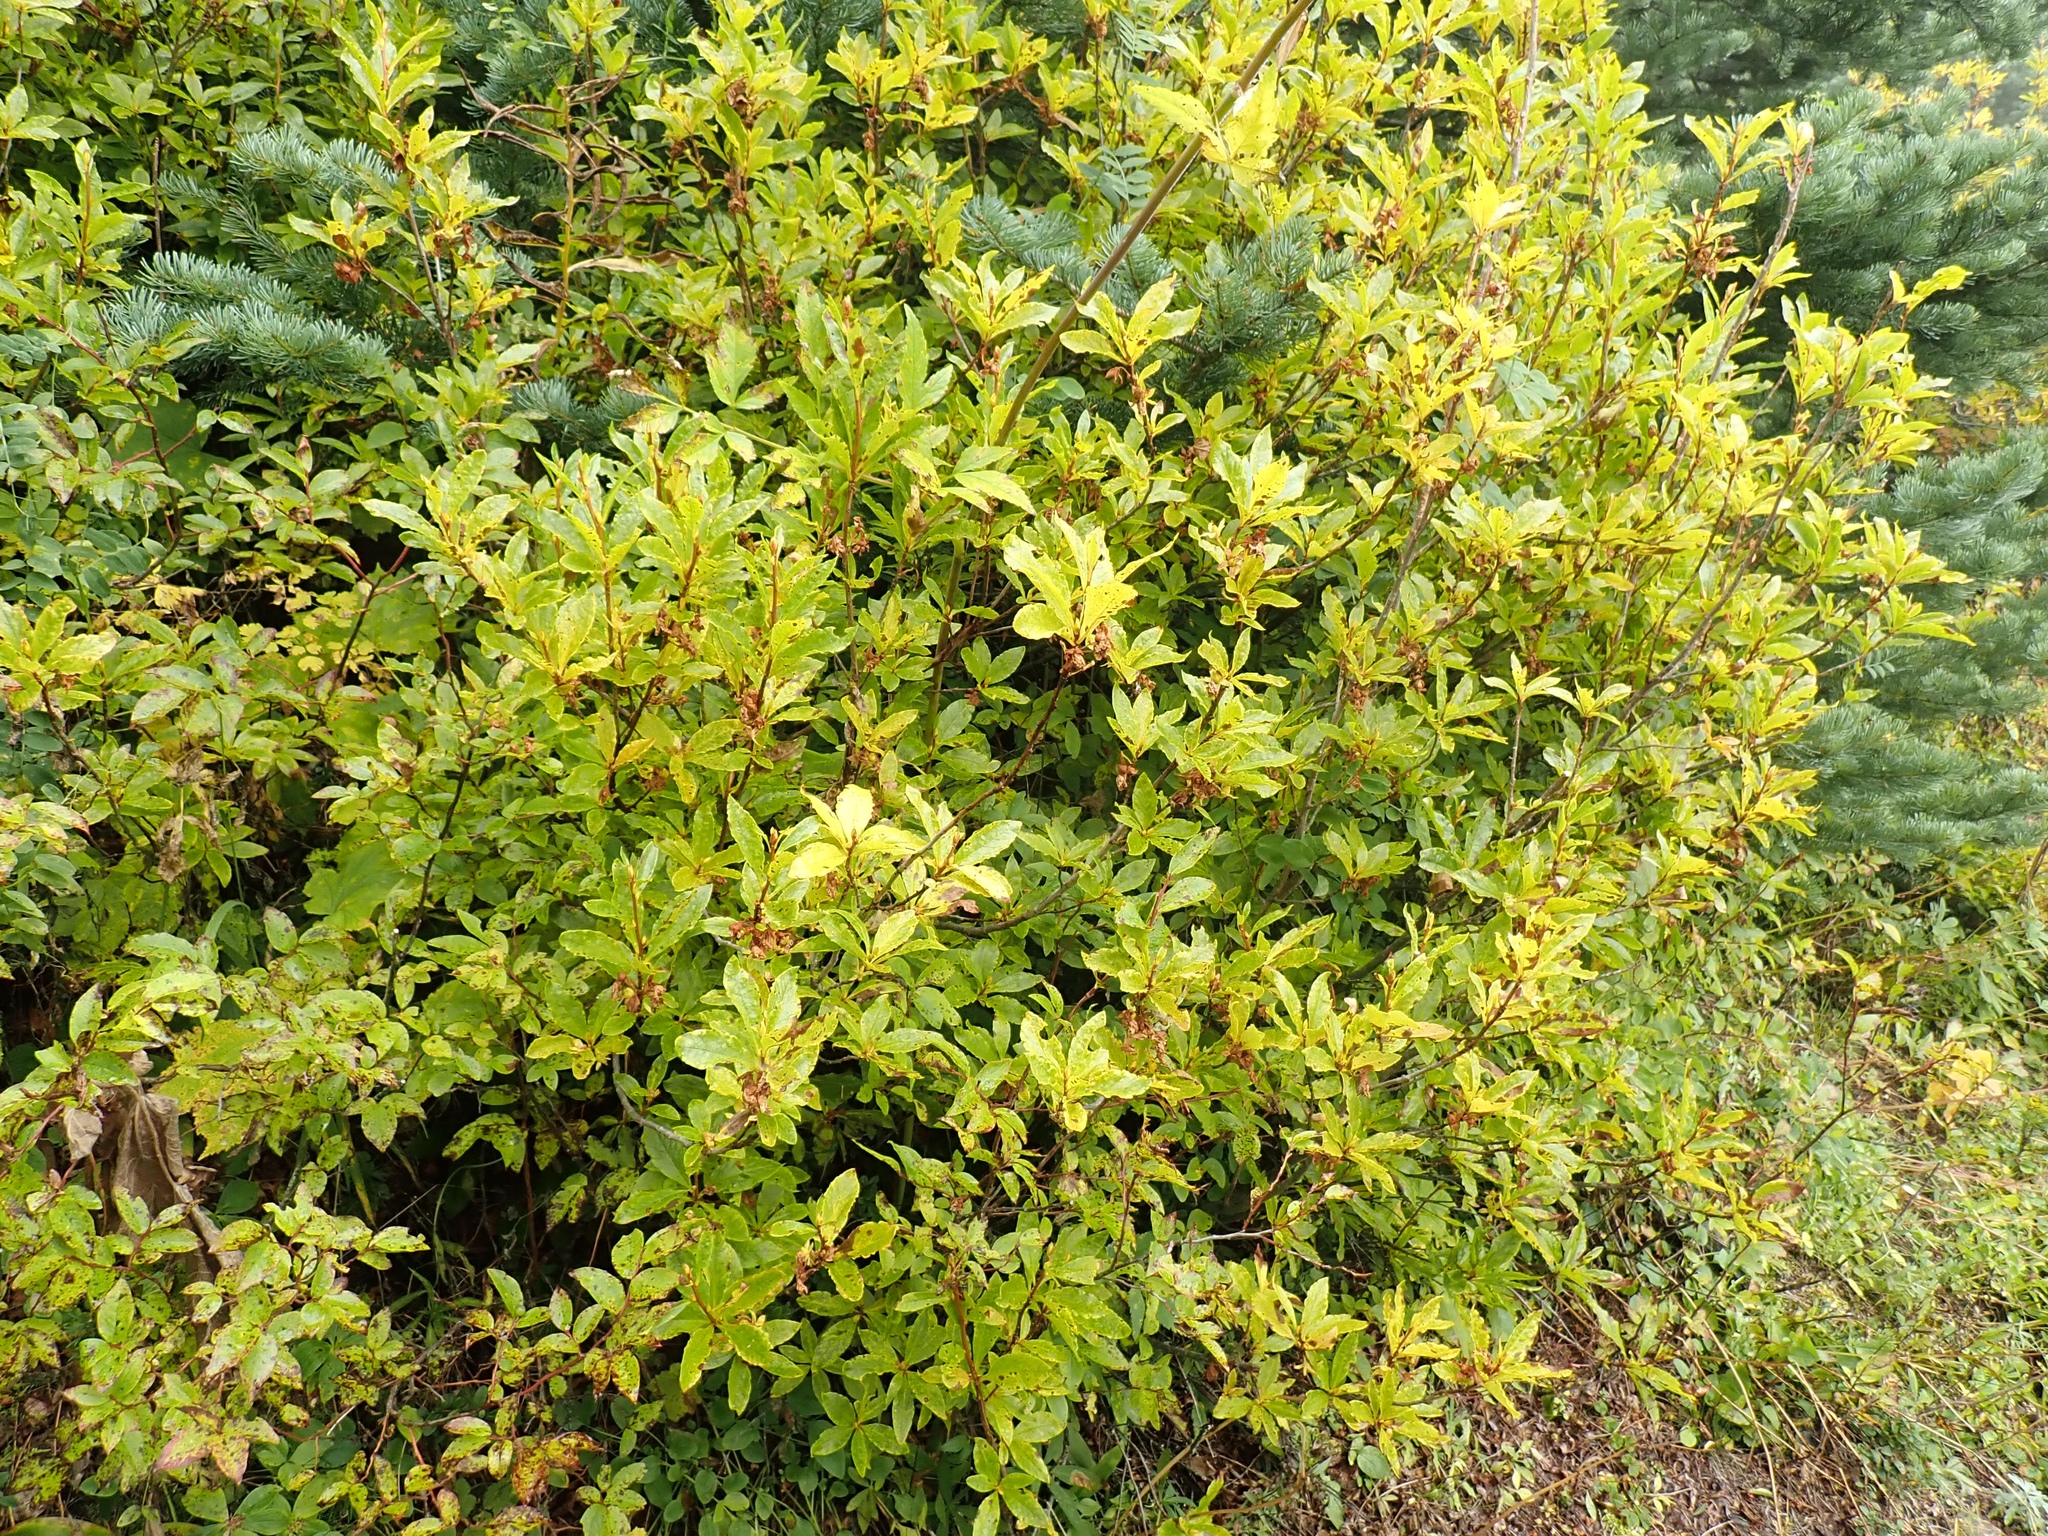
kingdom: Plantae
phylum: Tracheophyta
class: Magnoliopsida
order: Ericales
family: Ericaceae
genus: Rhododendron
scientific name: Rhododendron albiflorum
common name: White rhododendron
